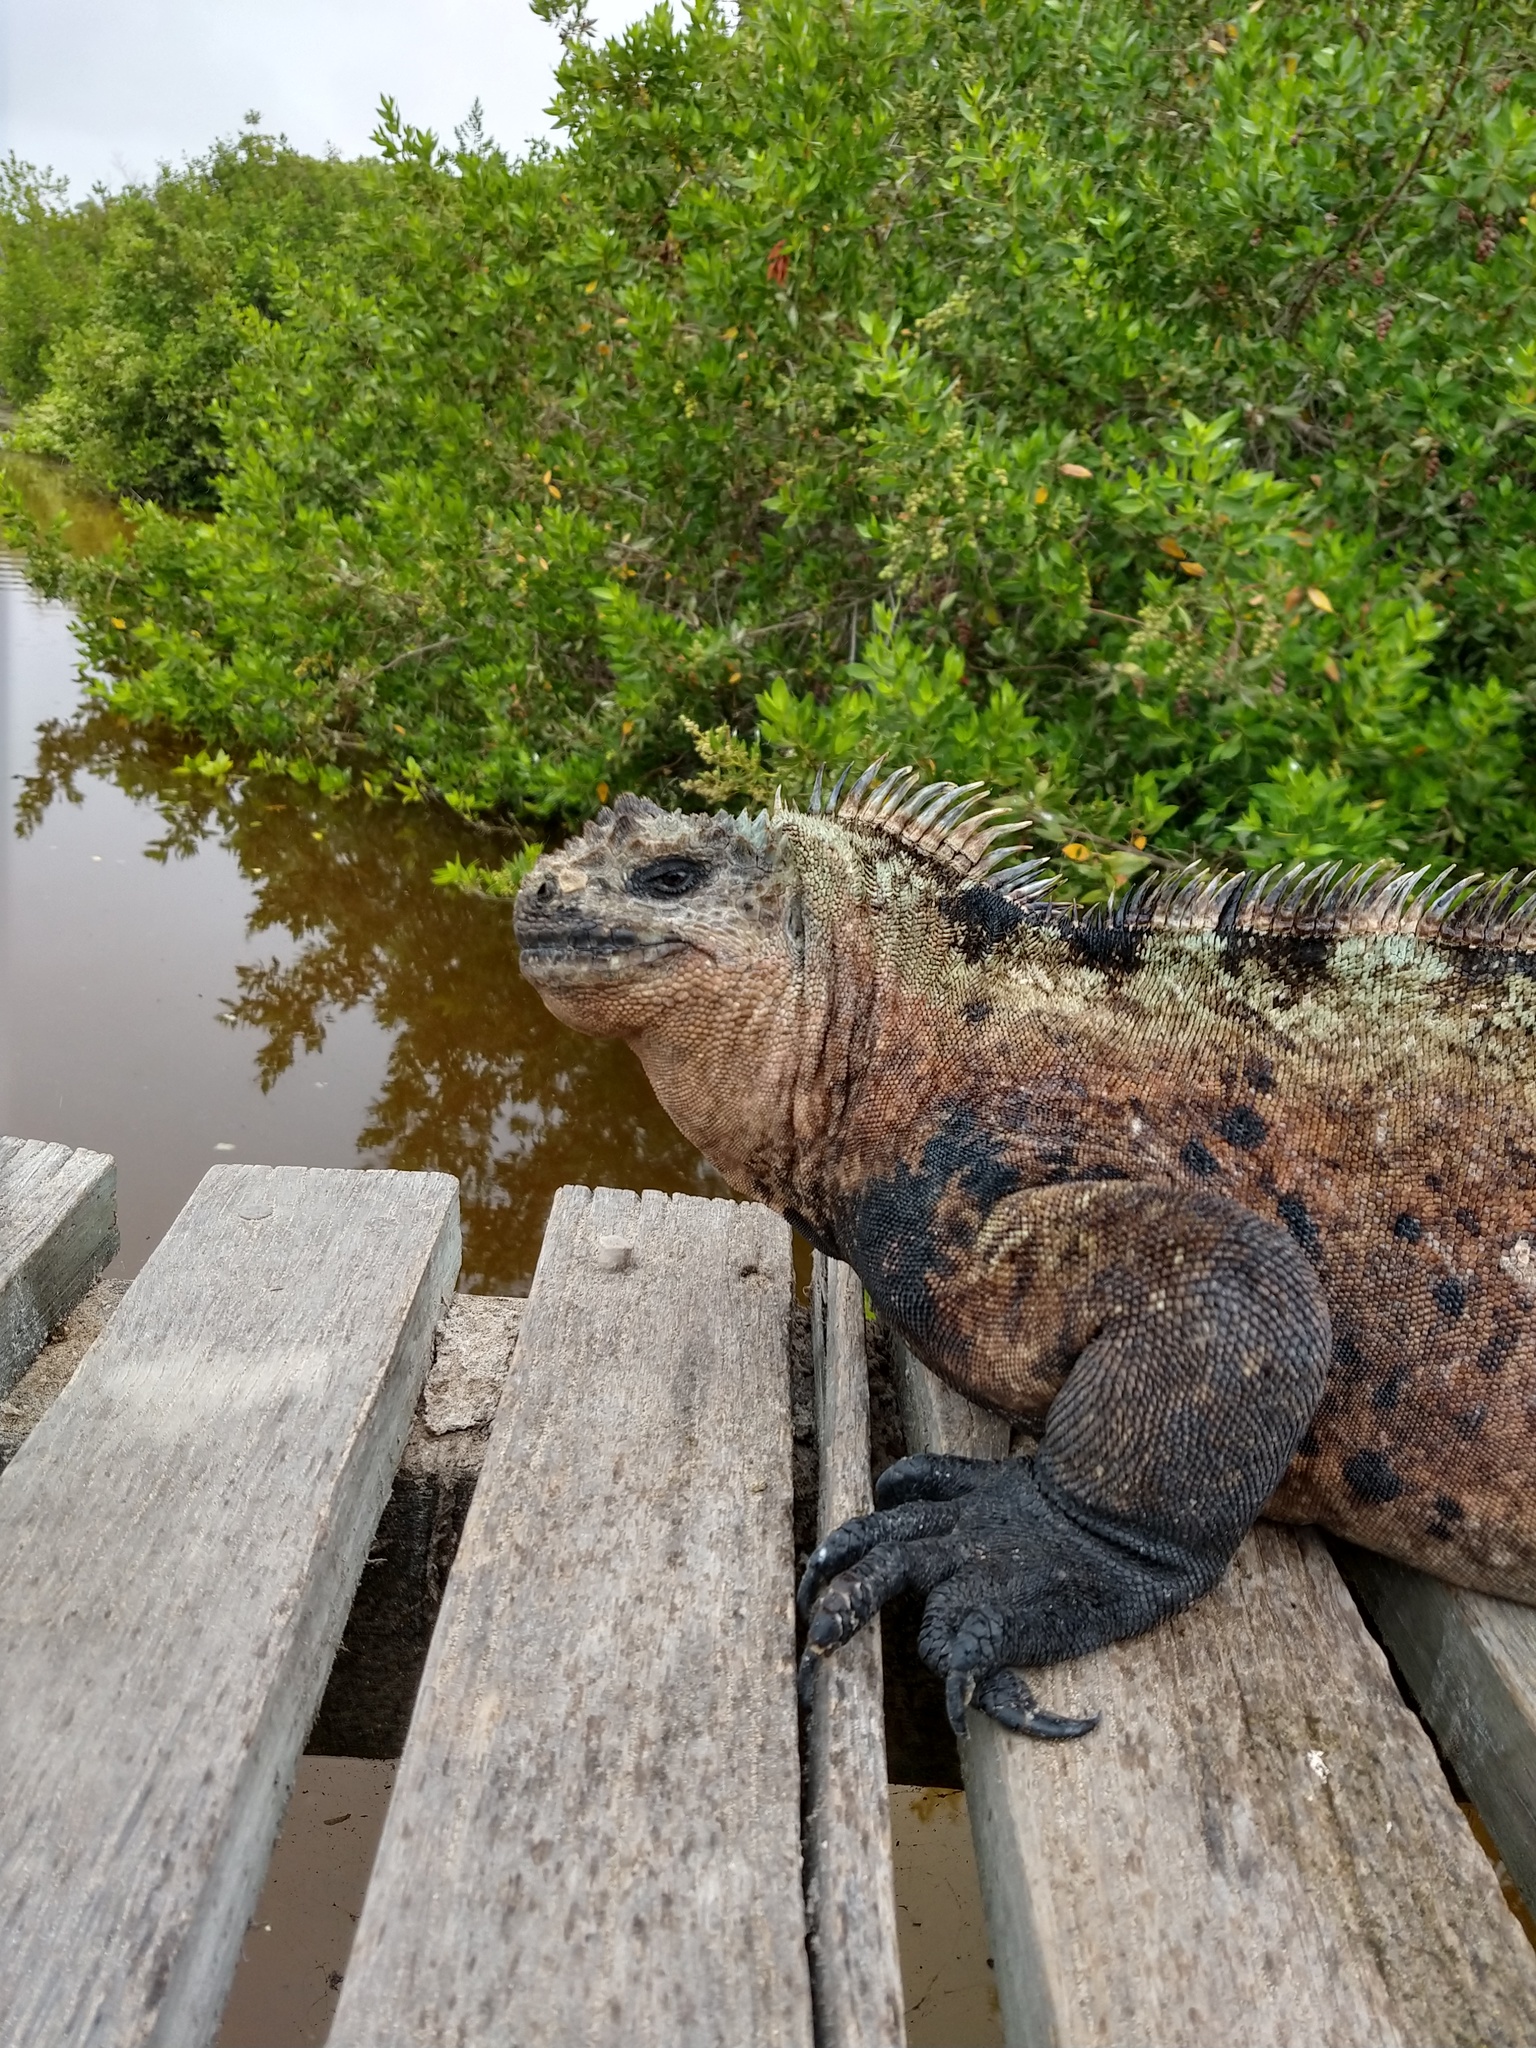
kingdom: Animalia
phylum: Chordata
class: Squamata
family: Iguanidae
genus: Amblyrhynchus
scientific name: Amblyrhynchus cristatus
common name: Marine iguana
